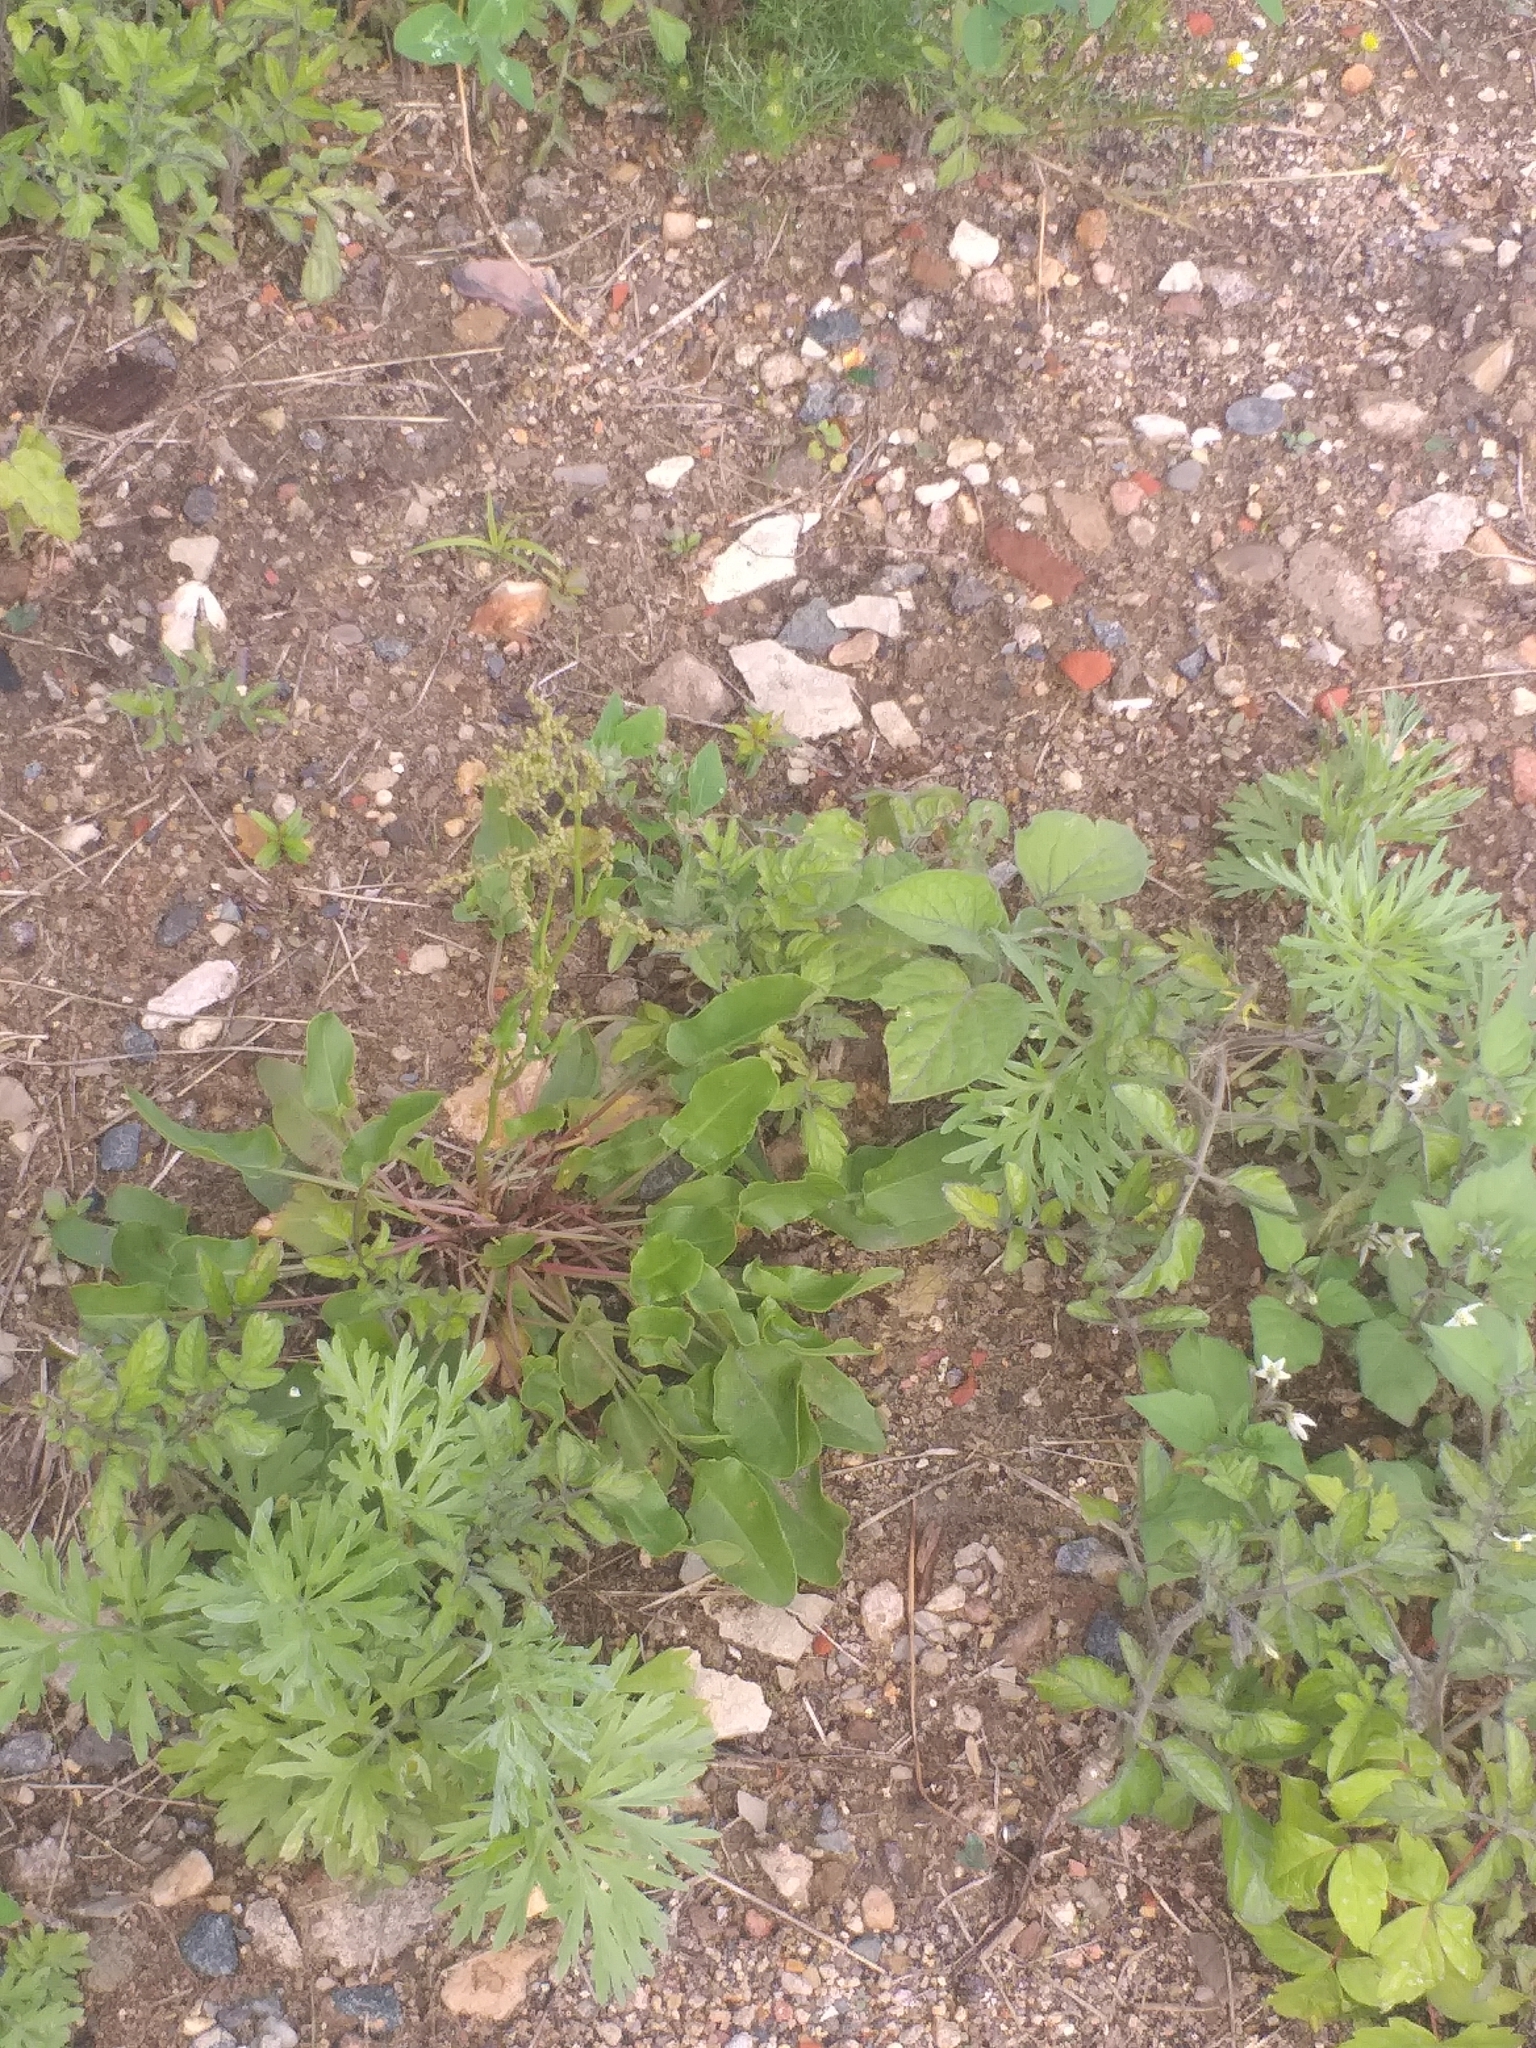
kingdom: Plantae
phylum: Tracheophyta
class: Magnoliopsida
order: Caryophyllales
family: Polygonaceae
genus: Rumex
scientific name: Rumex acetosa
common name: Garden sorrel
